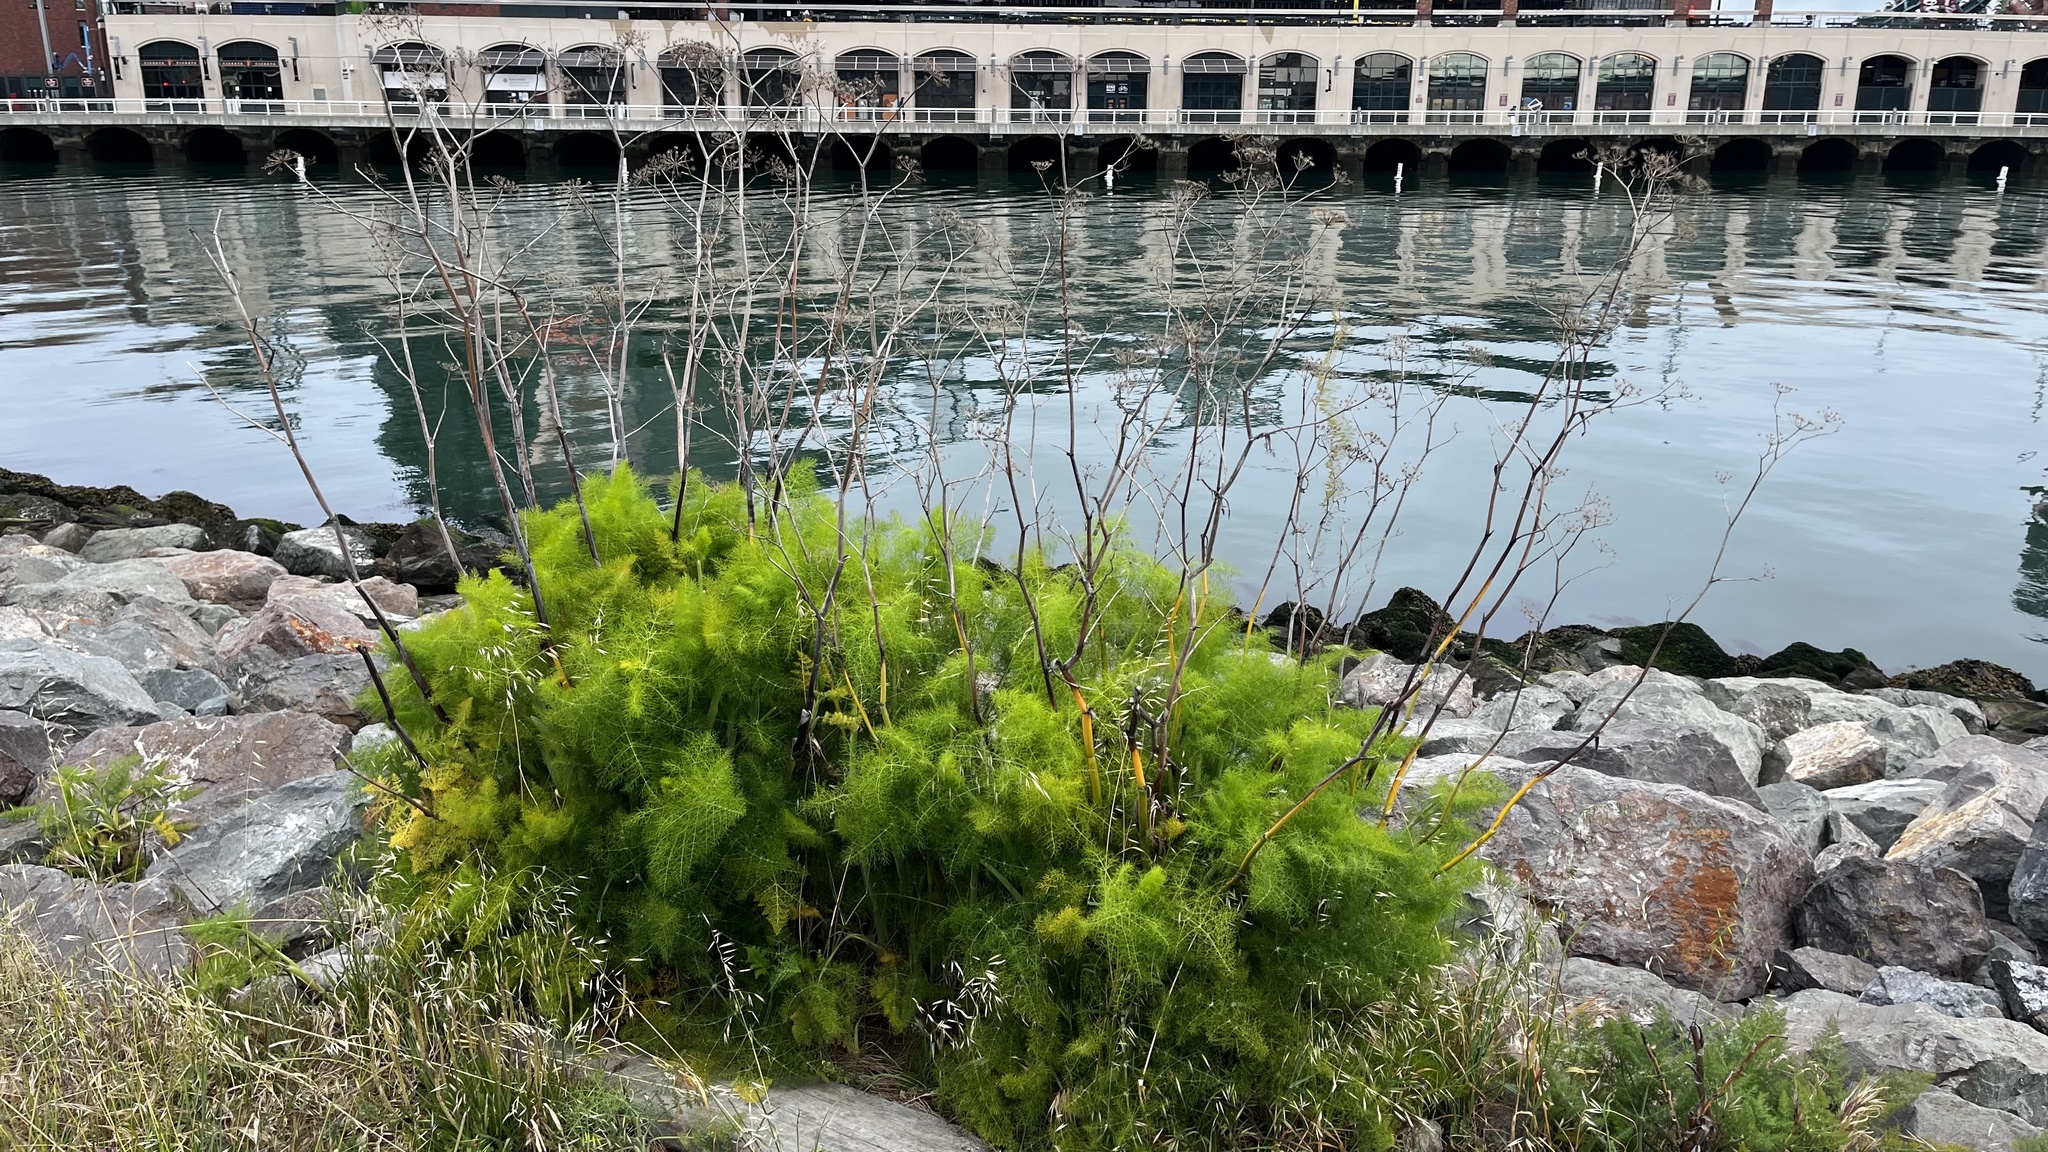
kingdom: Plantae
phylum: Tracheophyta
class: Magnoliopsida
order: Apiales
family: Apiaceae
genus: Foeniculum
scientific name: Foeniculum vulgare
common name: Fennel
